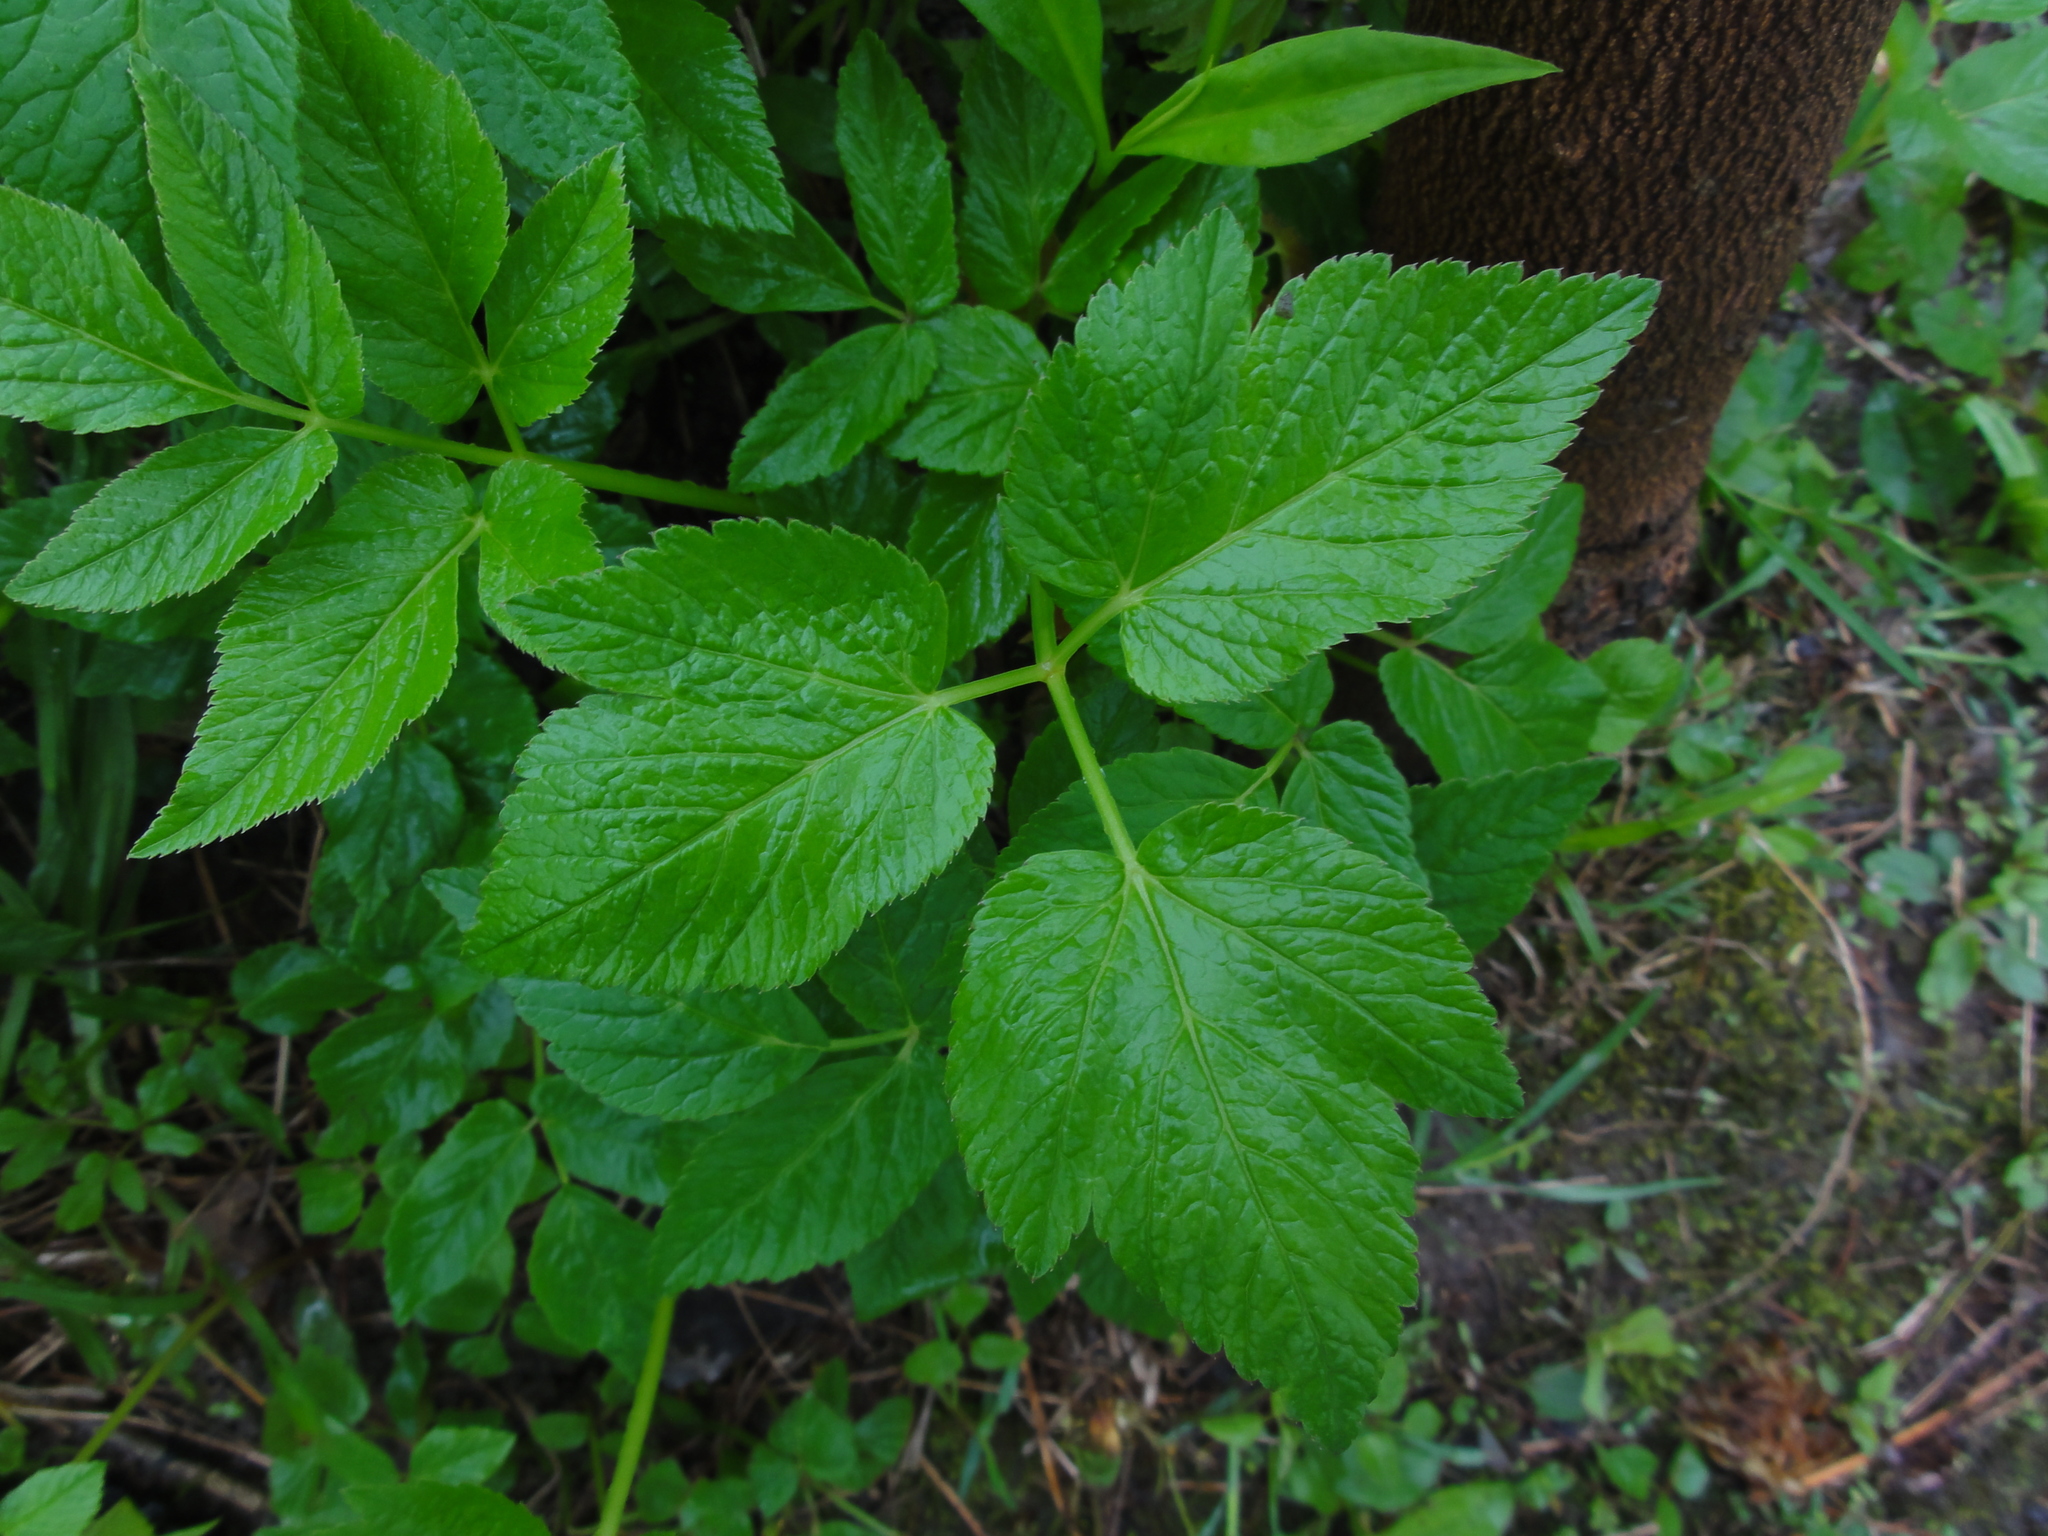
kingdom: Plantae
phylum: Tracheophyta
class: Magnoliopsida
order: Apiales
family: Apiaceae
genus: Aegopodium
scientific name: Aegopodium podagraria
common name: Ground-elder
